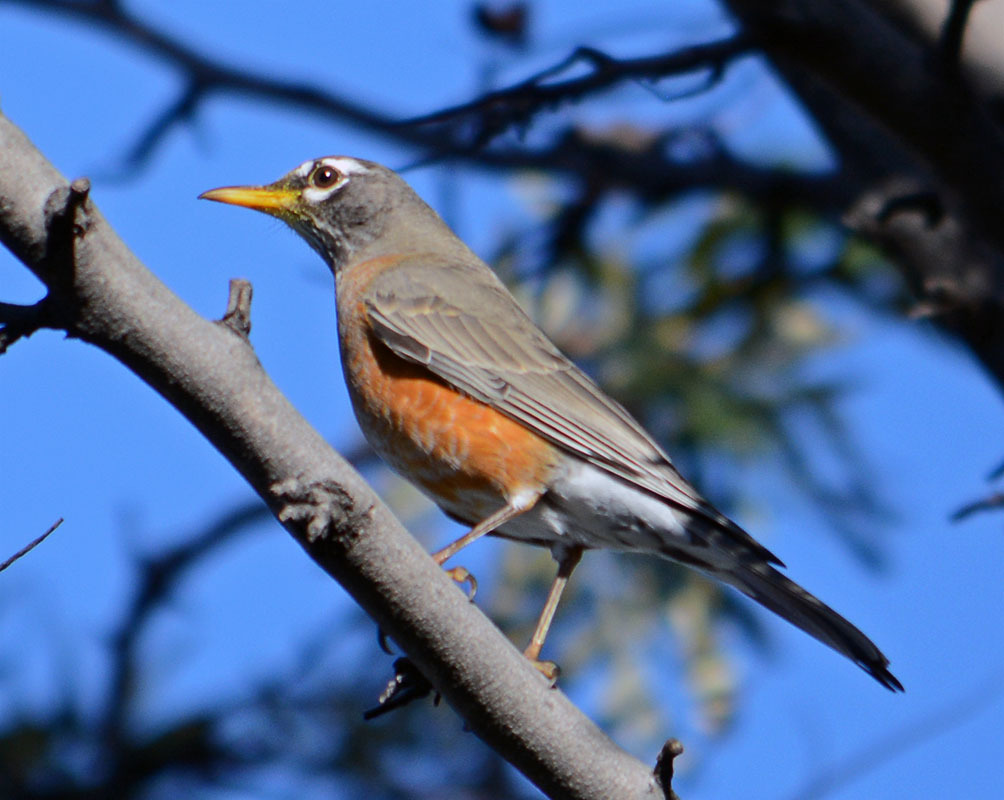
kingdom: Animalia
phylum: Chordata
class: Aves
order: Passeriformes
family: Turdidae
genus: Turdus
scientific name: Turdus migratorius
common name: American robin
